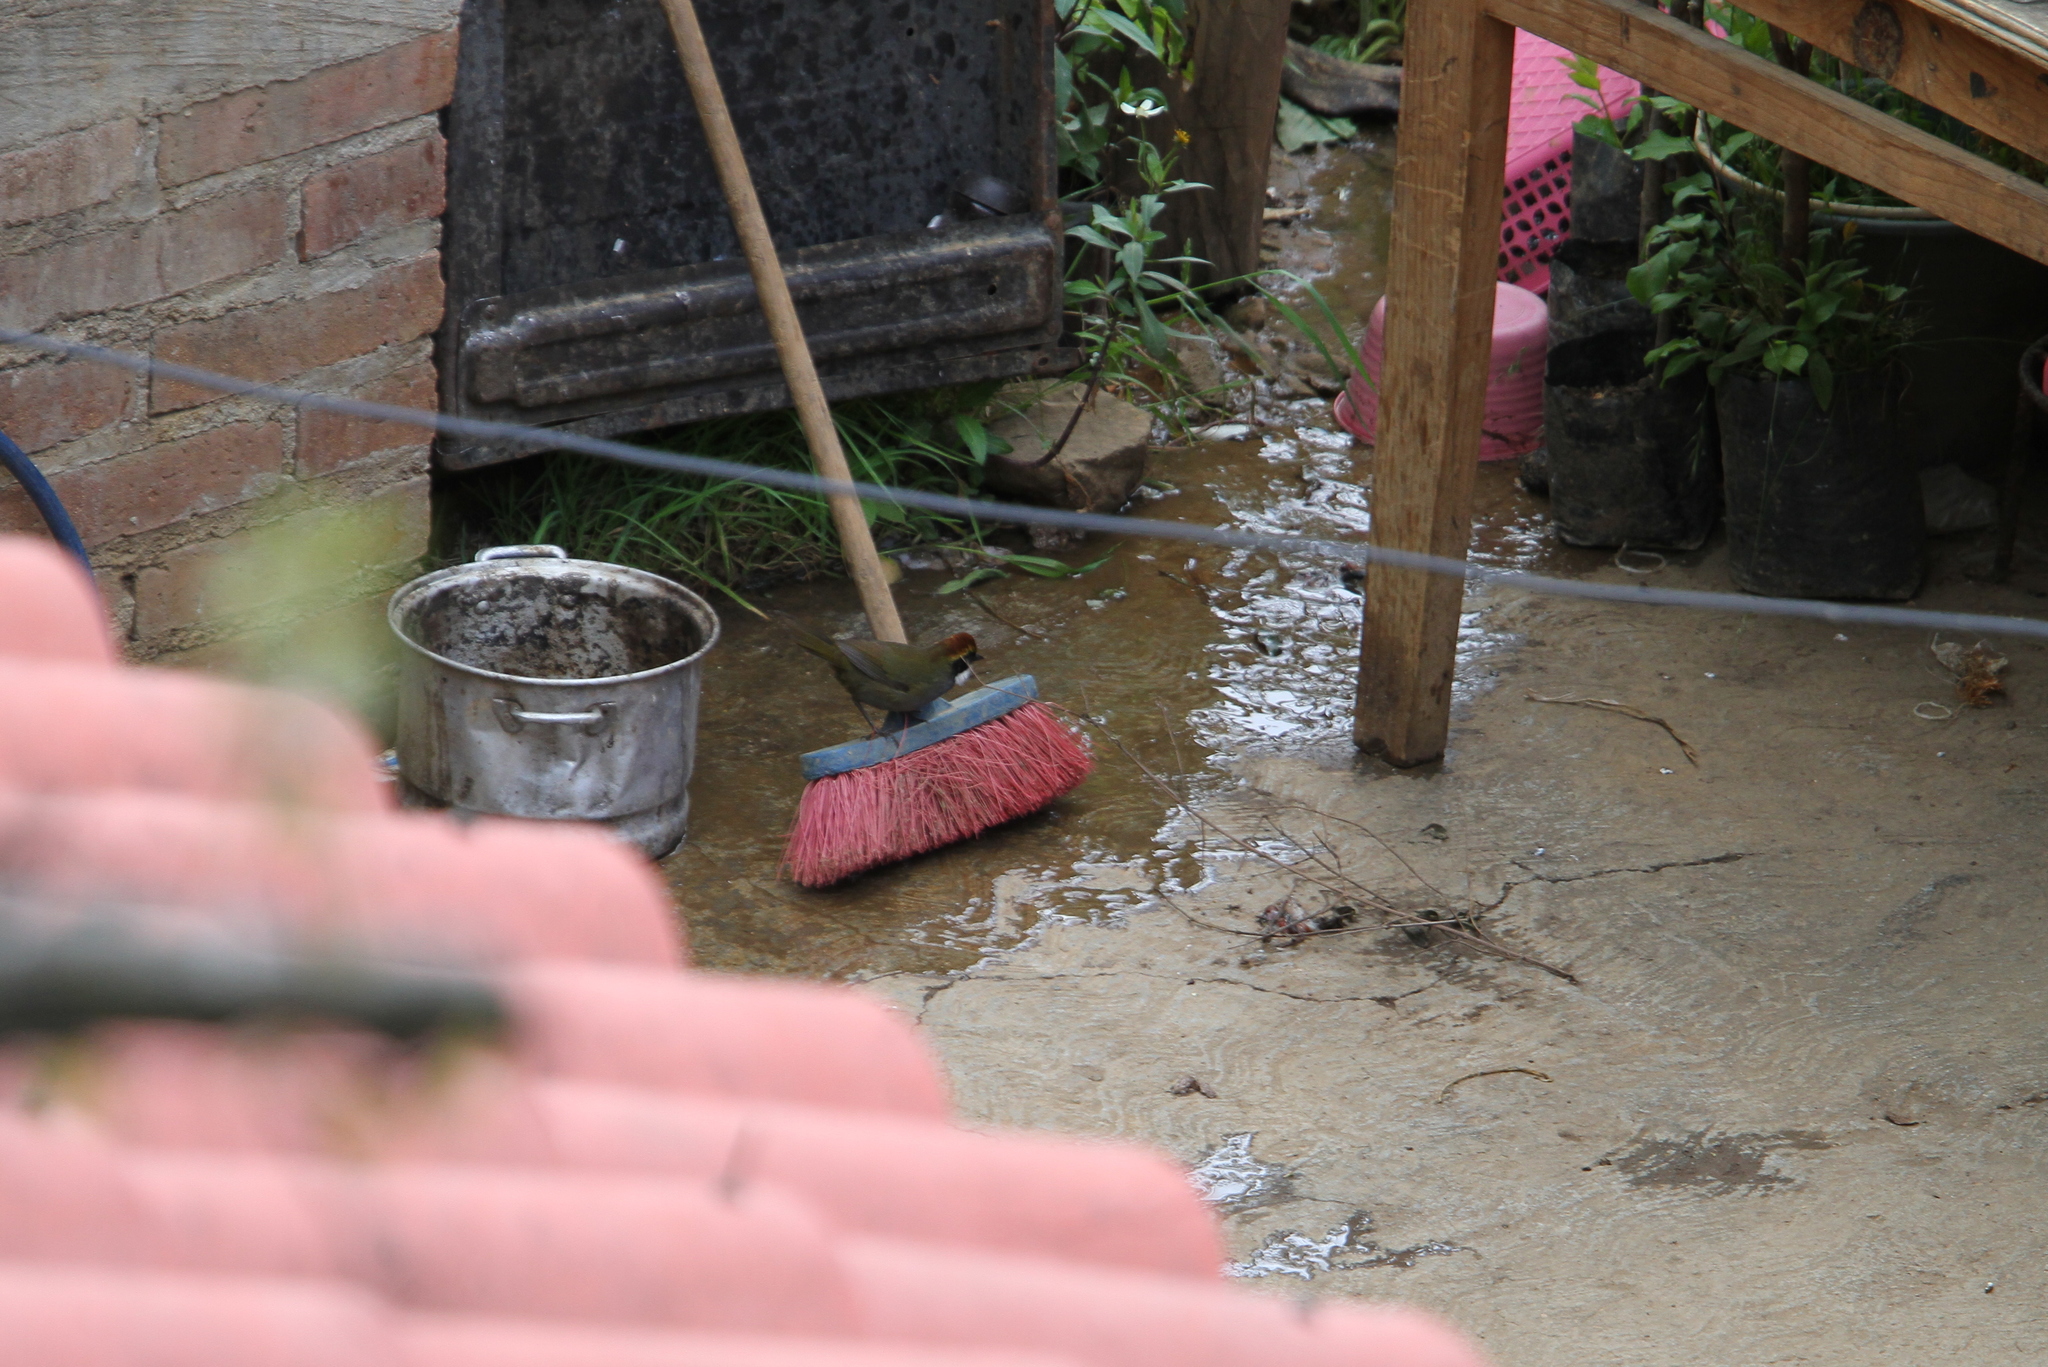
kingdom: Animalia
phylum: Chordata
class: Aves
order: Passeriformes
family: Passerellidae
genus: Arremon
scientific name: Arremon brunneinucha
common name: Chestnut-capped brushfinch
